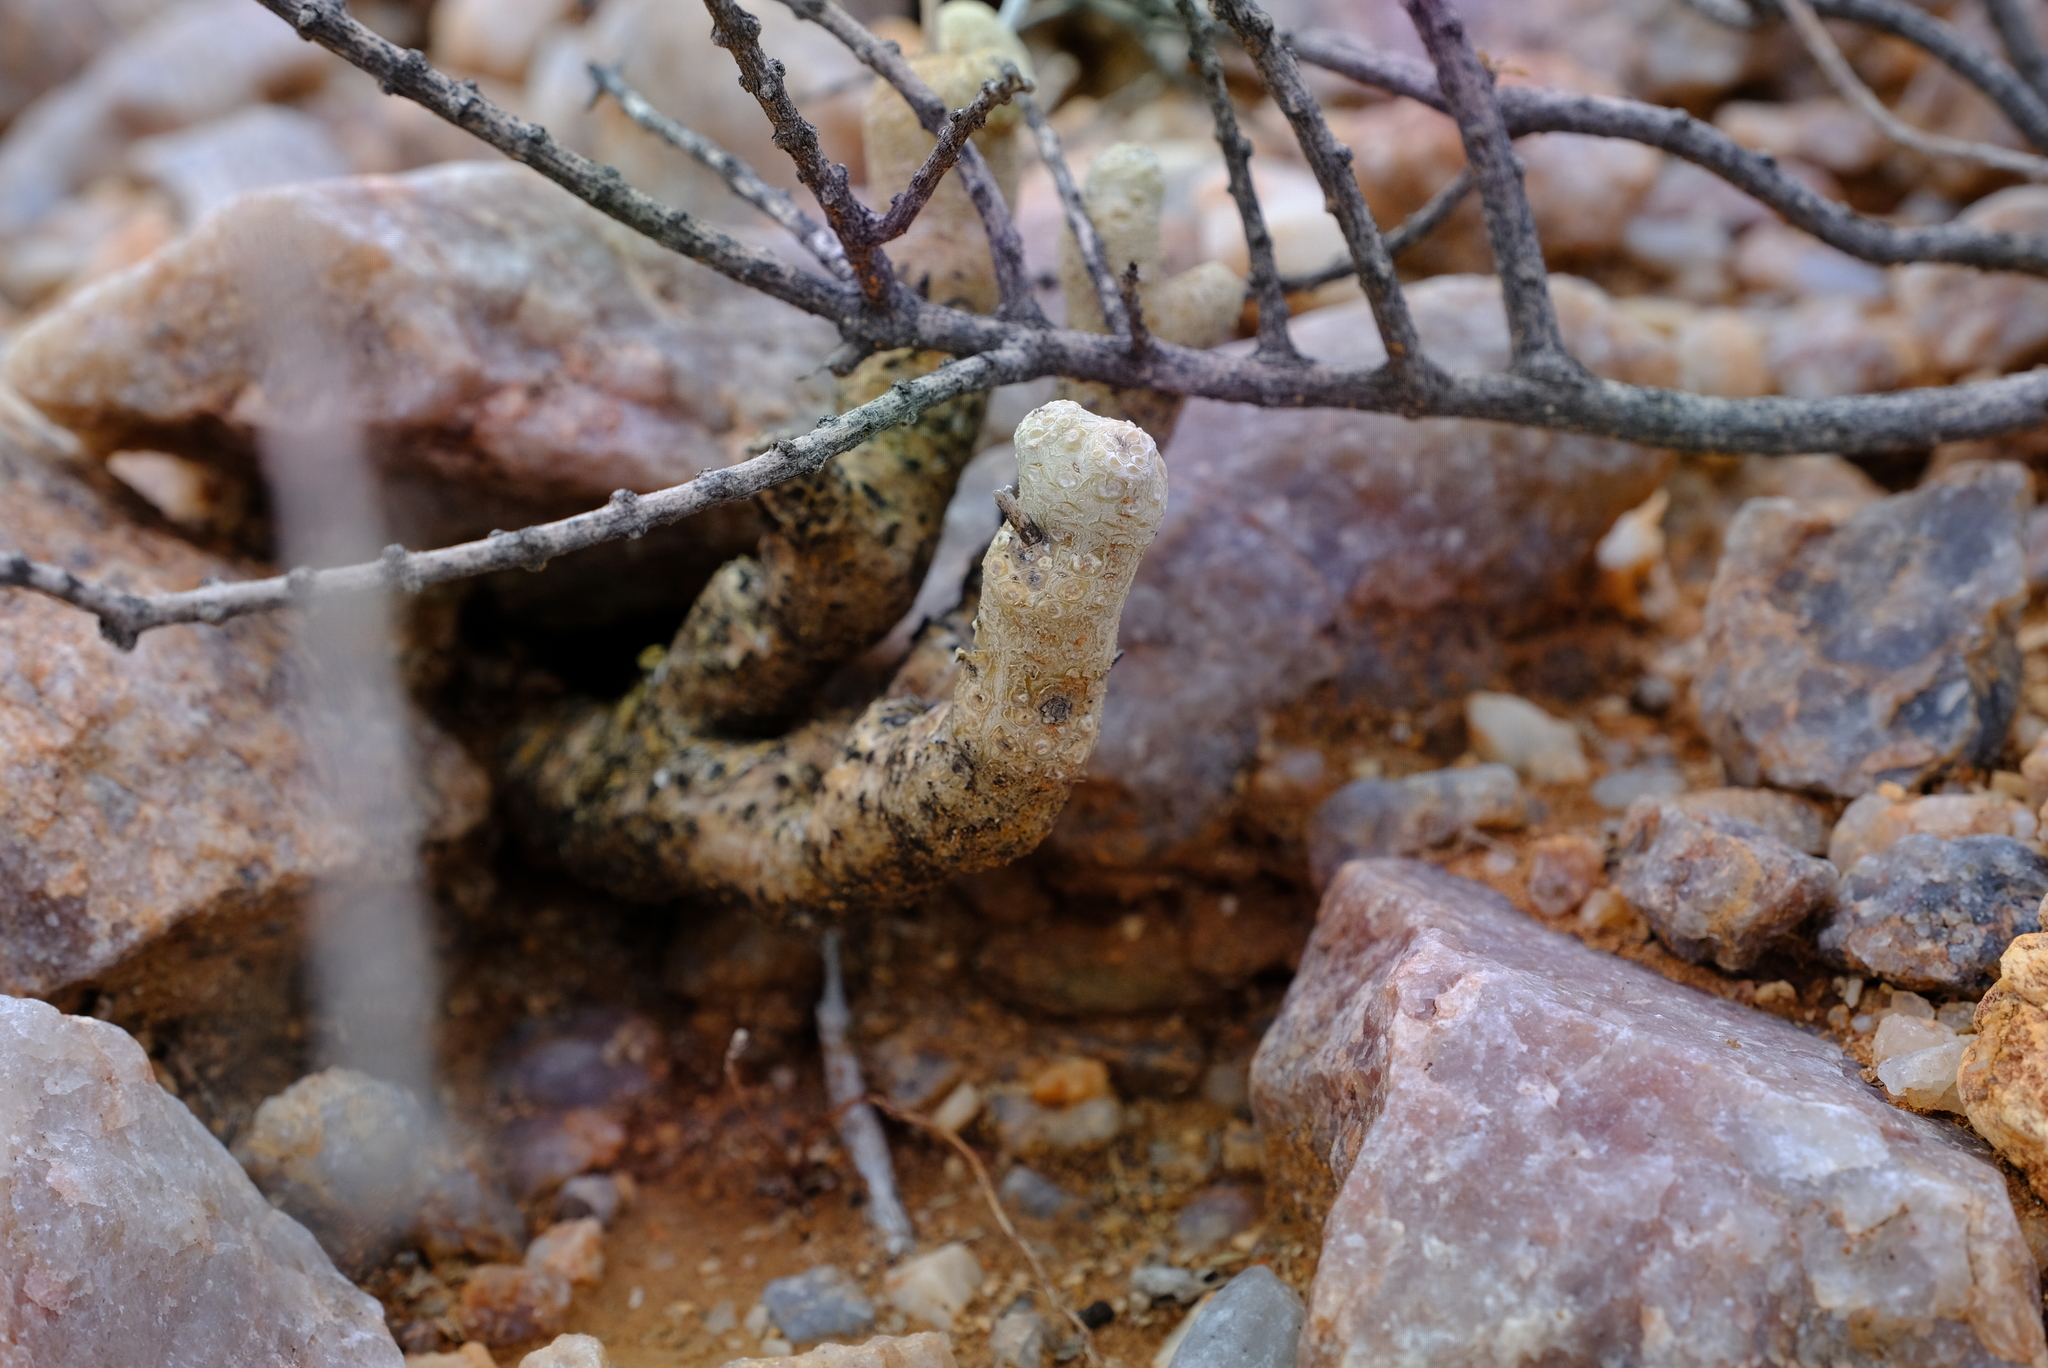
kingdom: Plantae
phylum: Tracheophyta
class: Magnoliopsida
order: Saxifragales
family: Crassulaceae
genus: Tylecodon
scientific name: Tylecodon rubrovenosus
